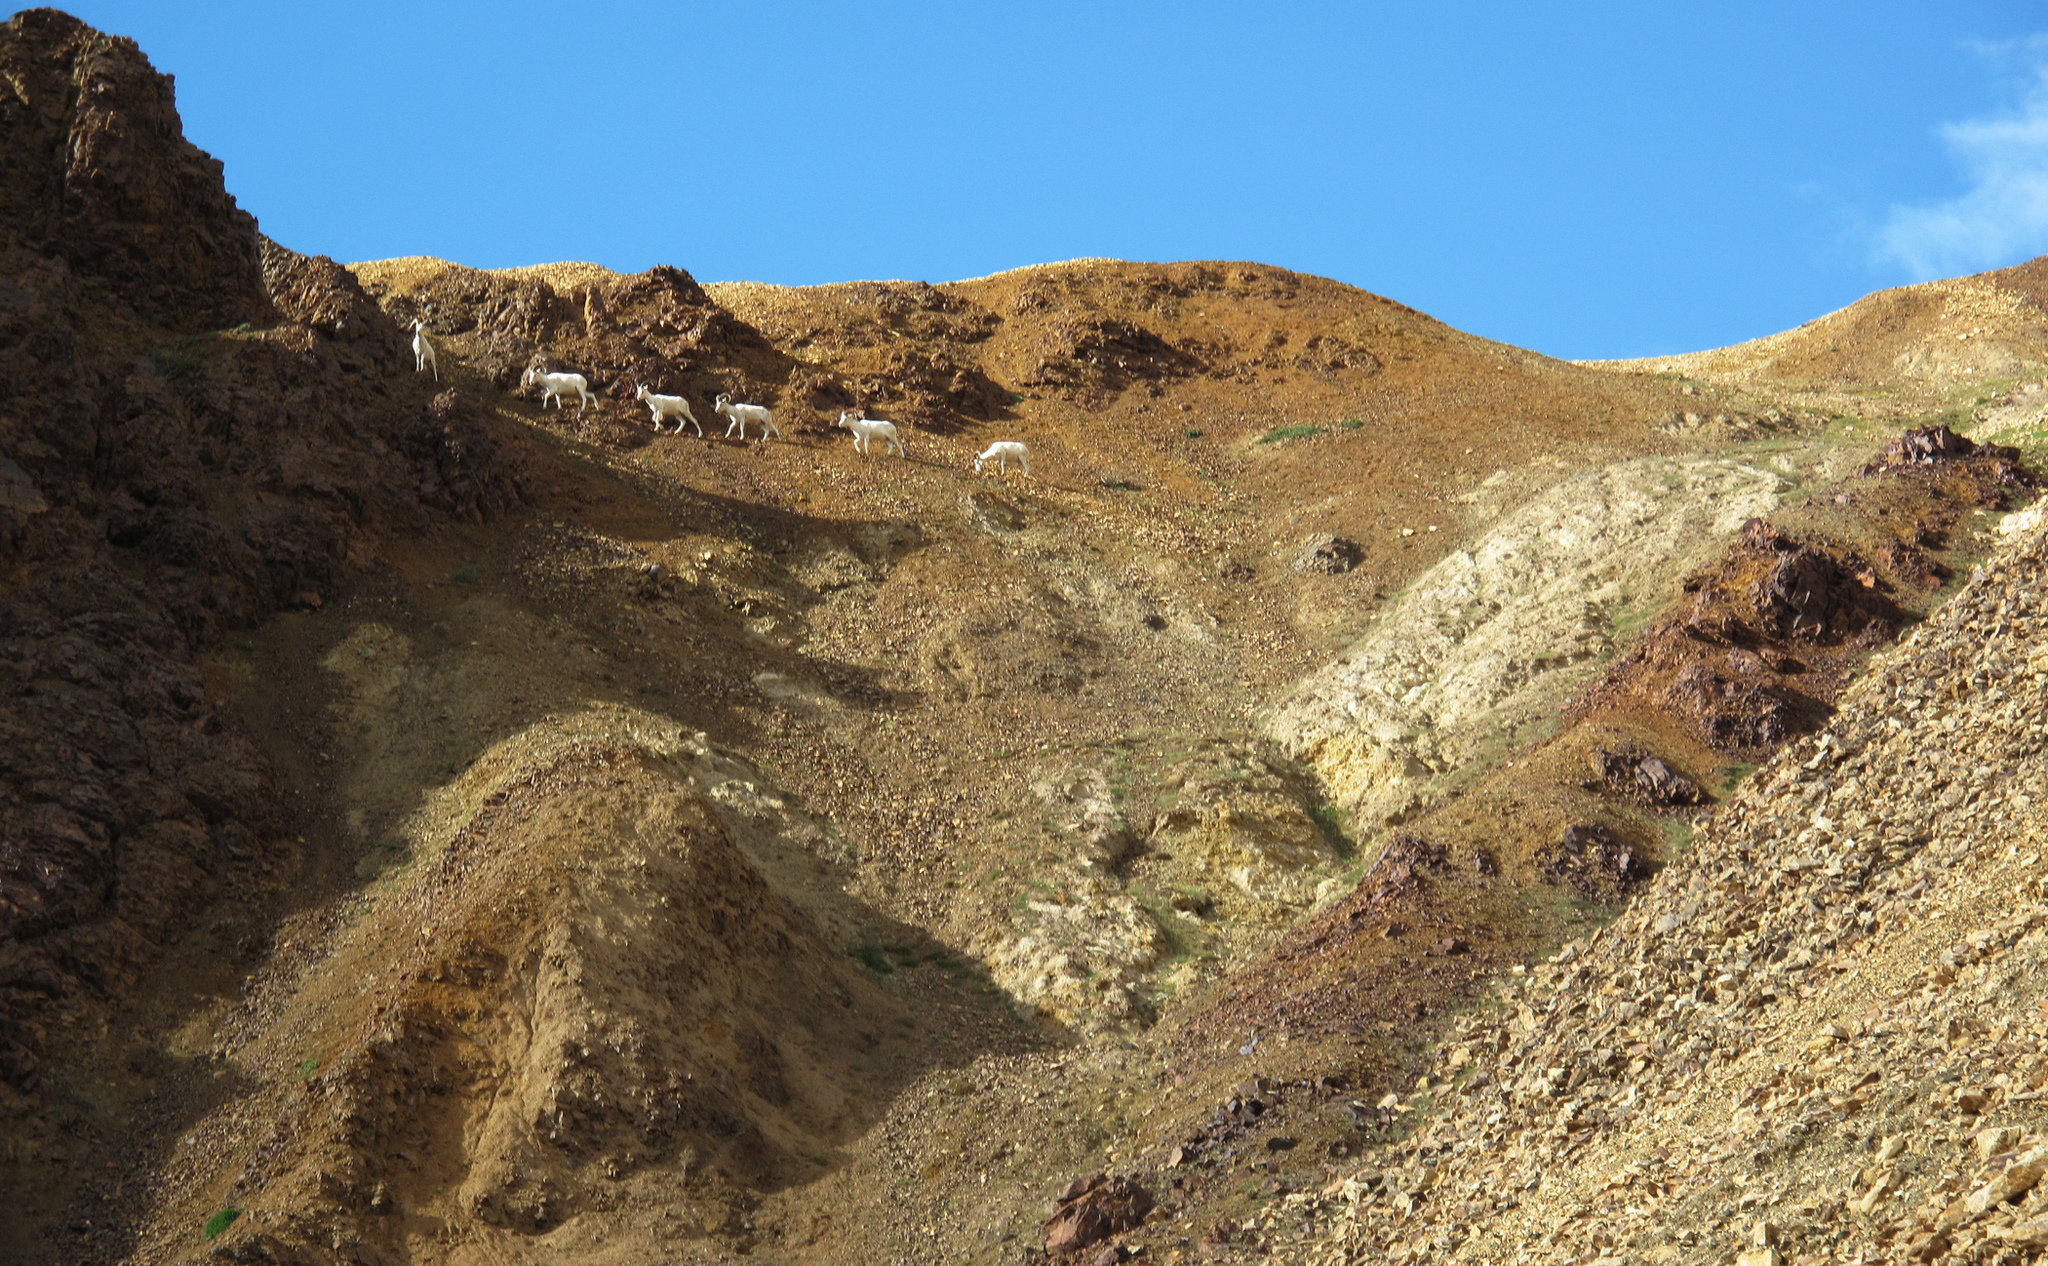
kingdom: Animalia
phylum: Chordata
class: Mammalia
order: Artiodactyla
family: Bovidae
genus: Ovis
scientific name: Ovis dalli
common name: Dall's sheep
